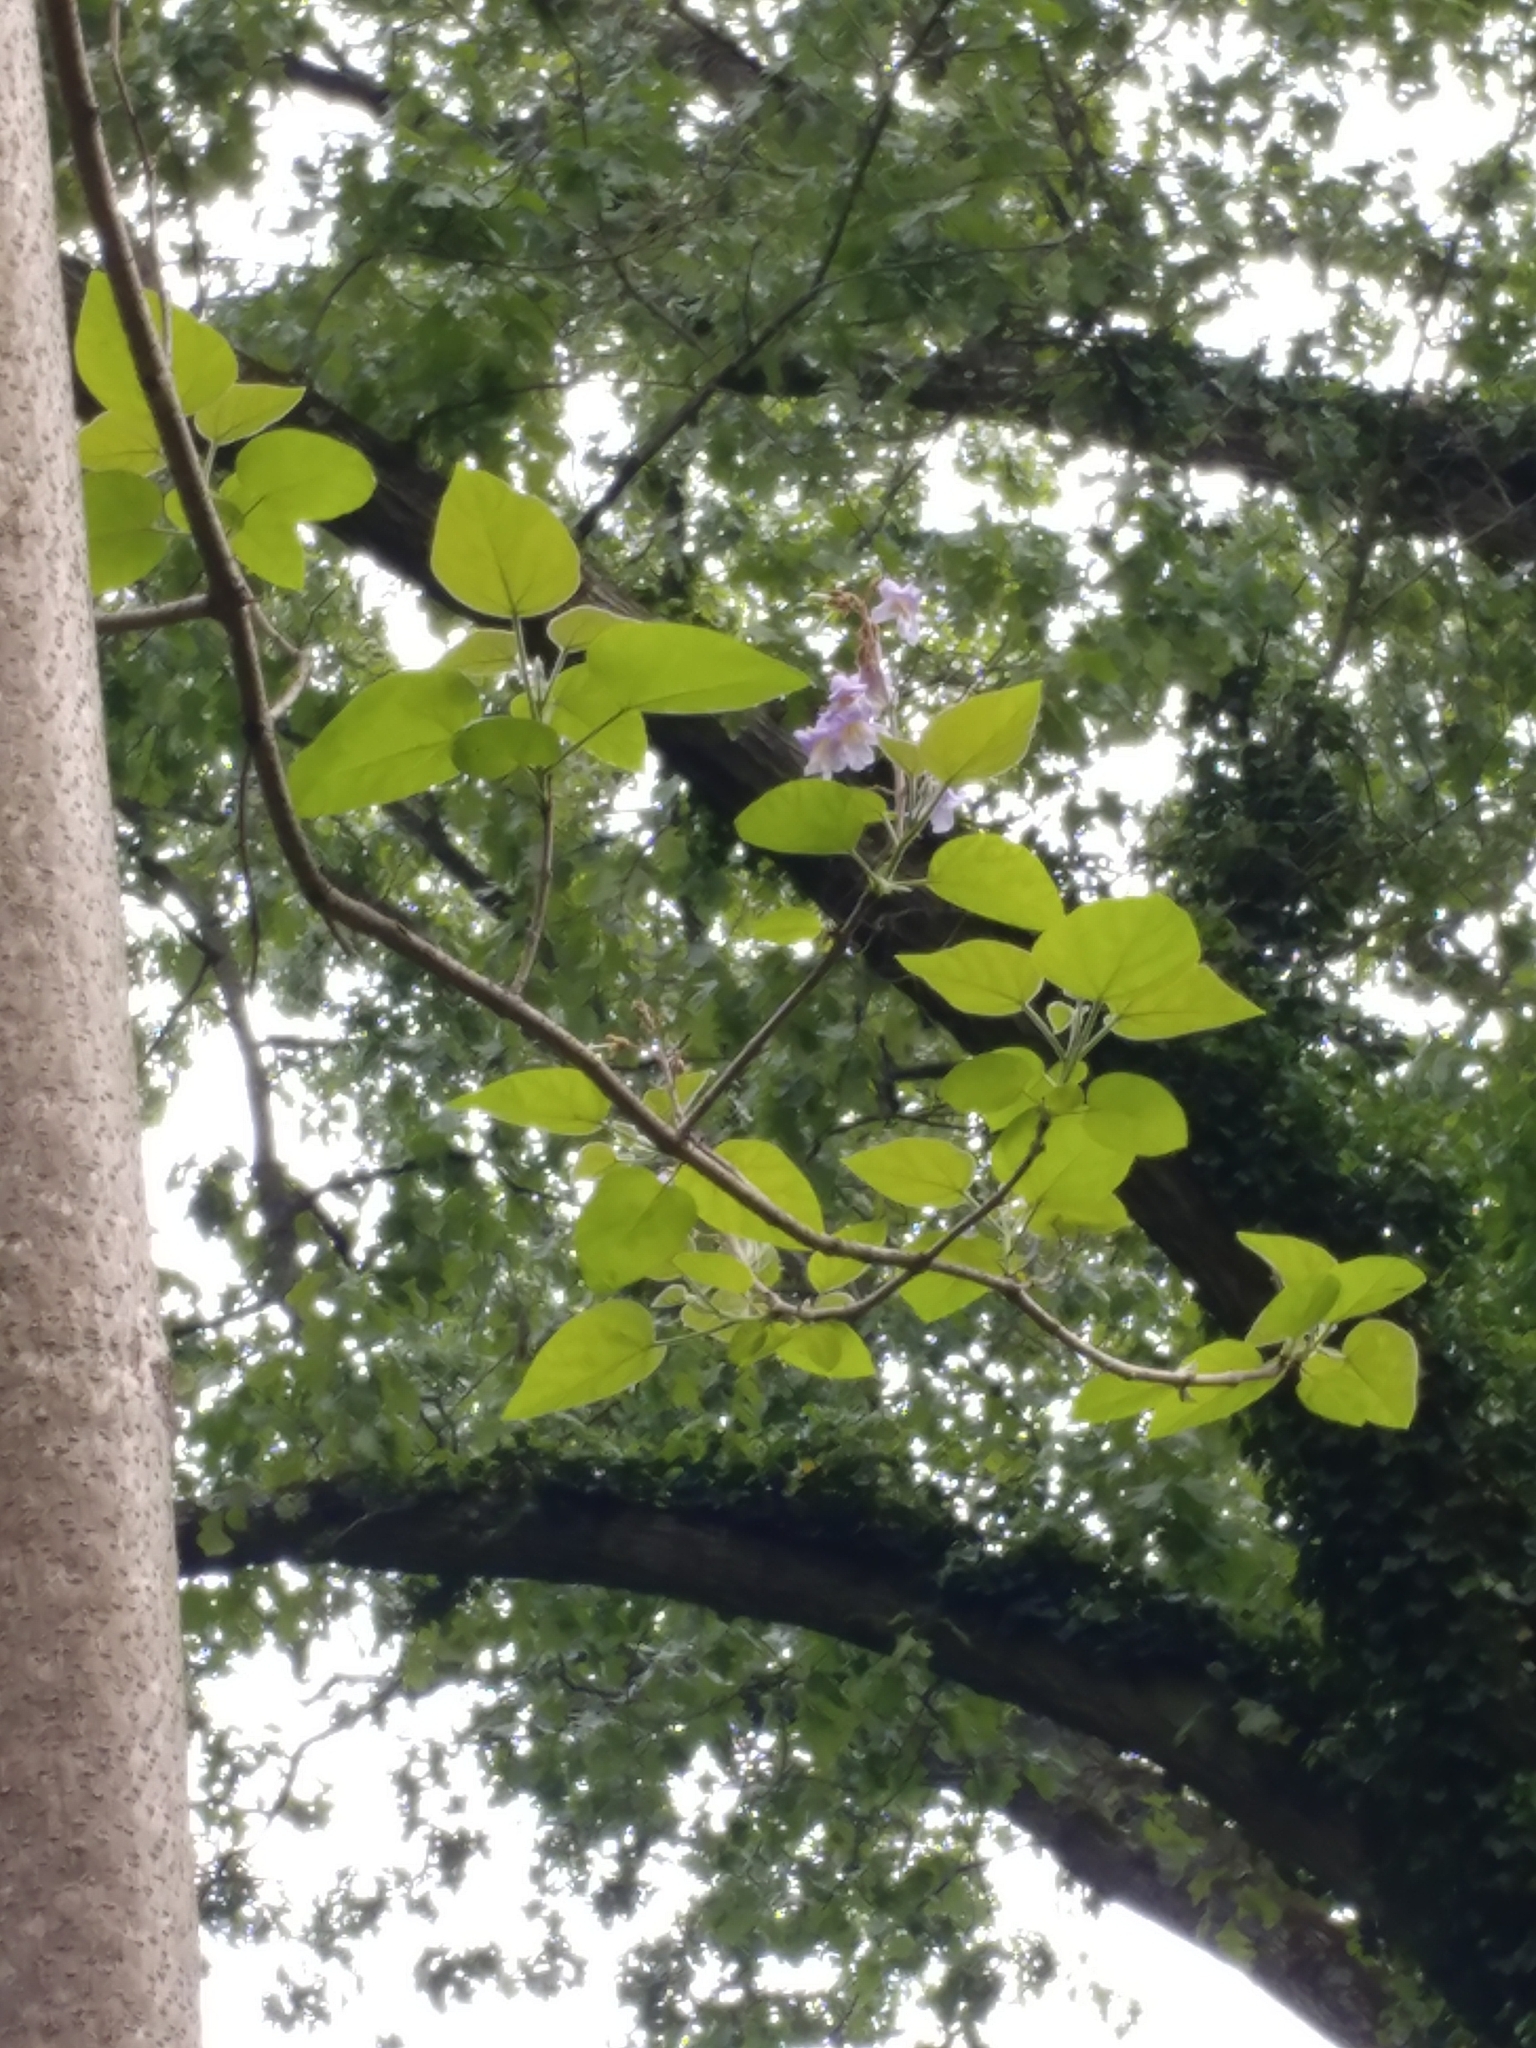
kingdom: Plantae
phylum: Tracheophyta
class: Magnoliopsida
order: Lamiales
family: Paulowniaceae
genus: Paulownia
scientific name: Paulownia tomentosa
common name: Foxglove-tree
